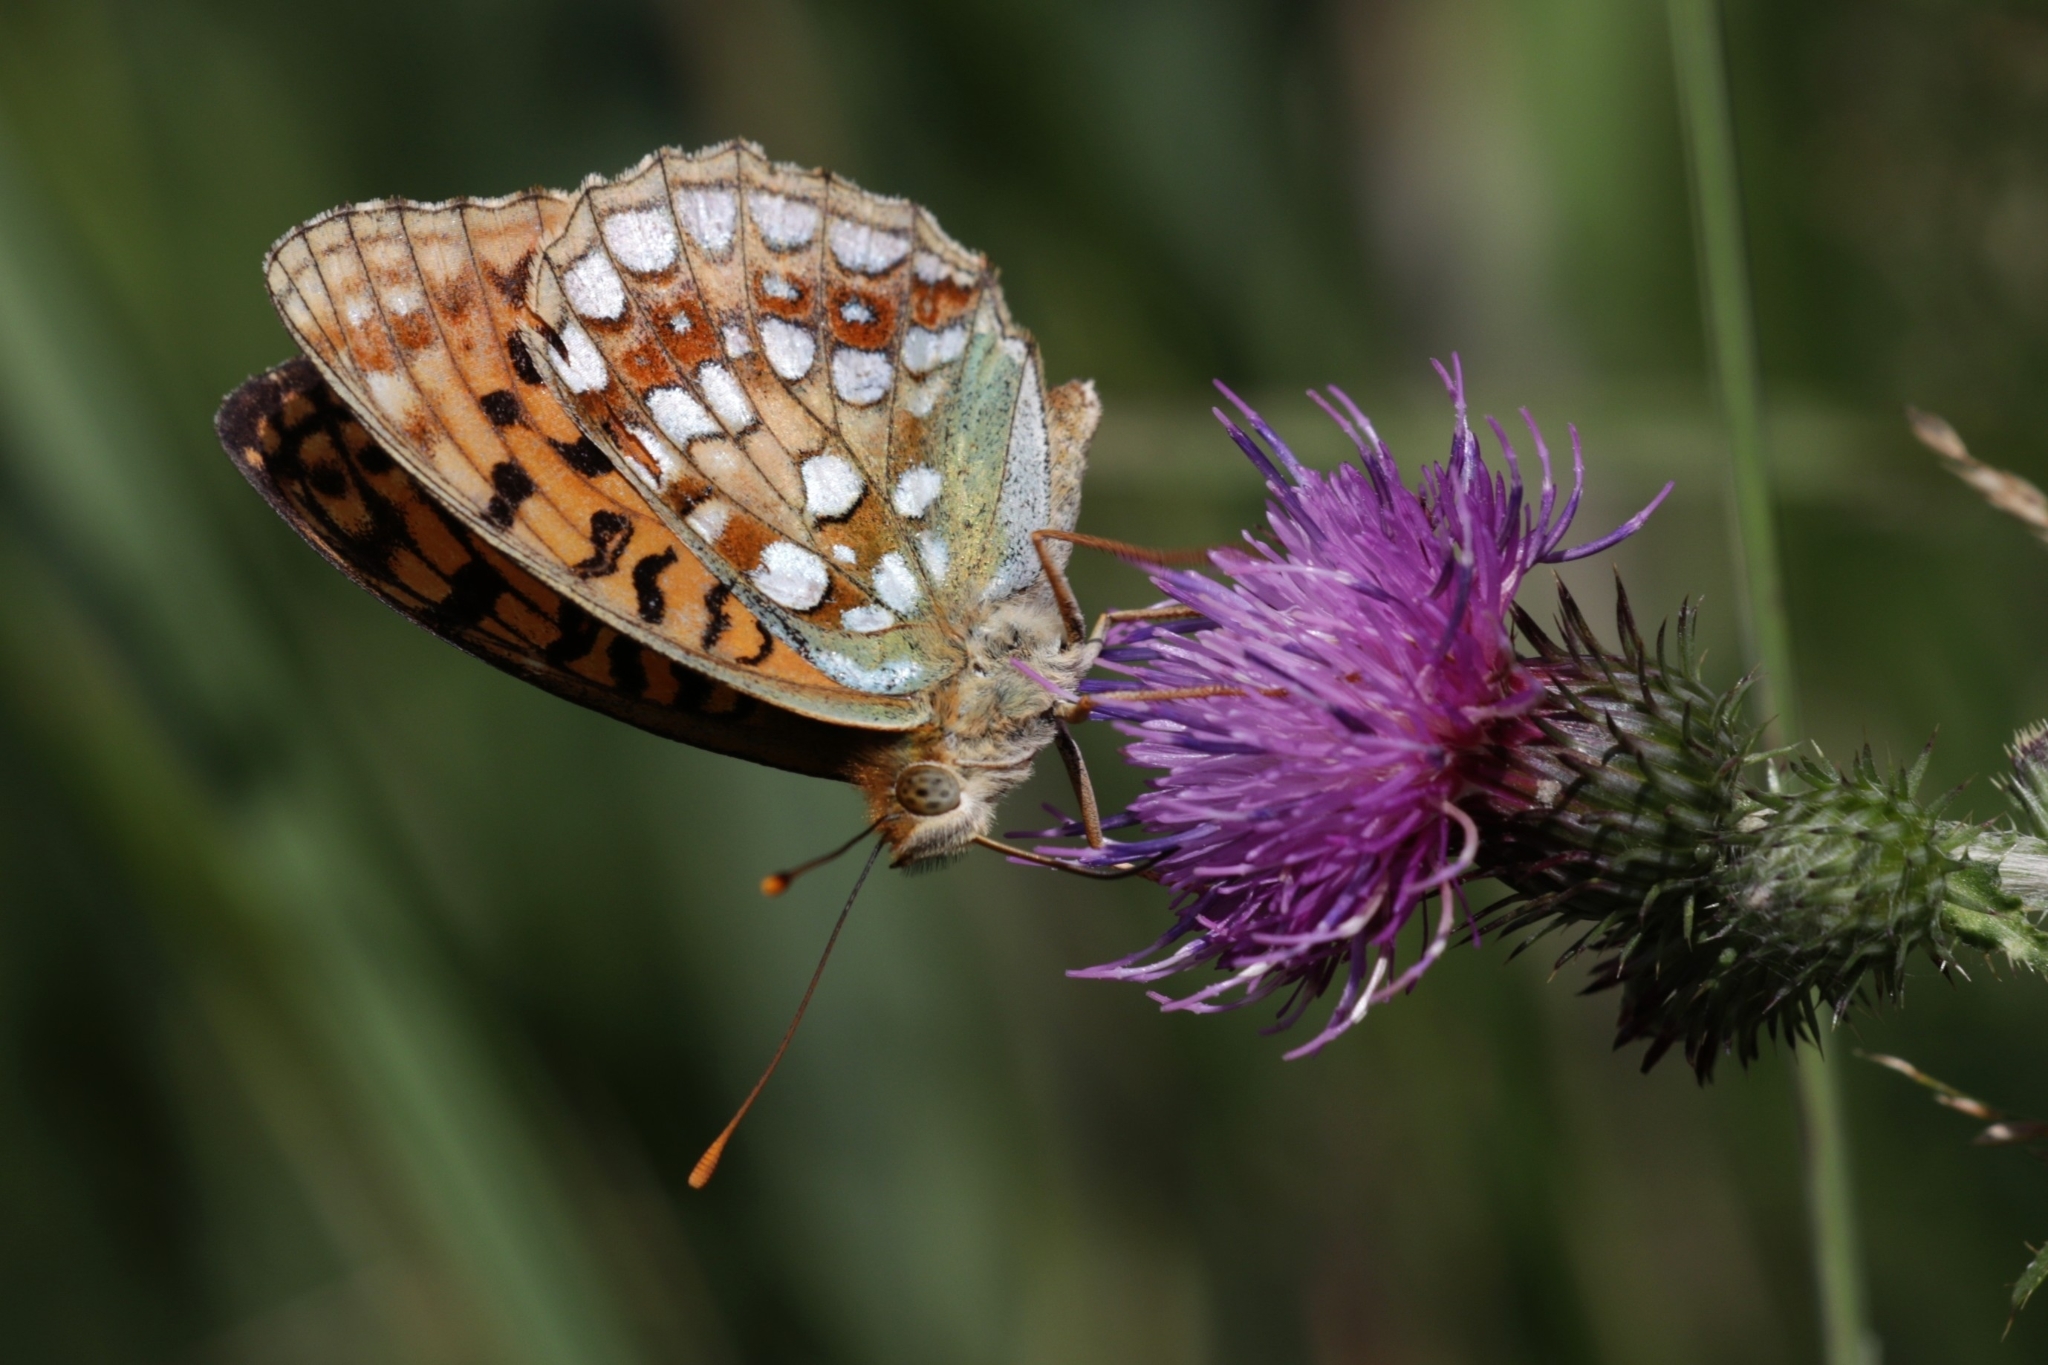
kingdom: Animalia
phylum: Arthropoda
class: Insecta
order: Lepidoptera
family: Nymphalidae
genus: Fabriciana
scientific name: Fabriciana adippe
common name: High brown fritillary
